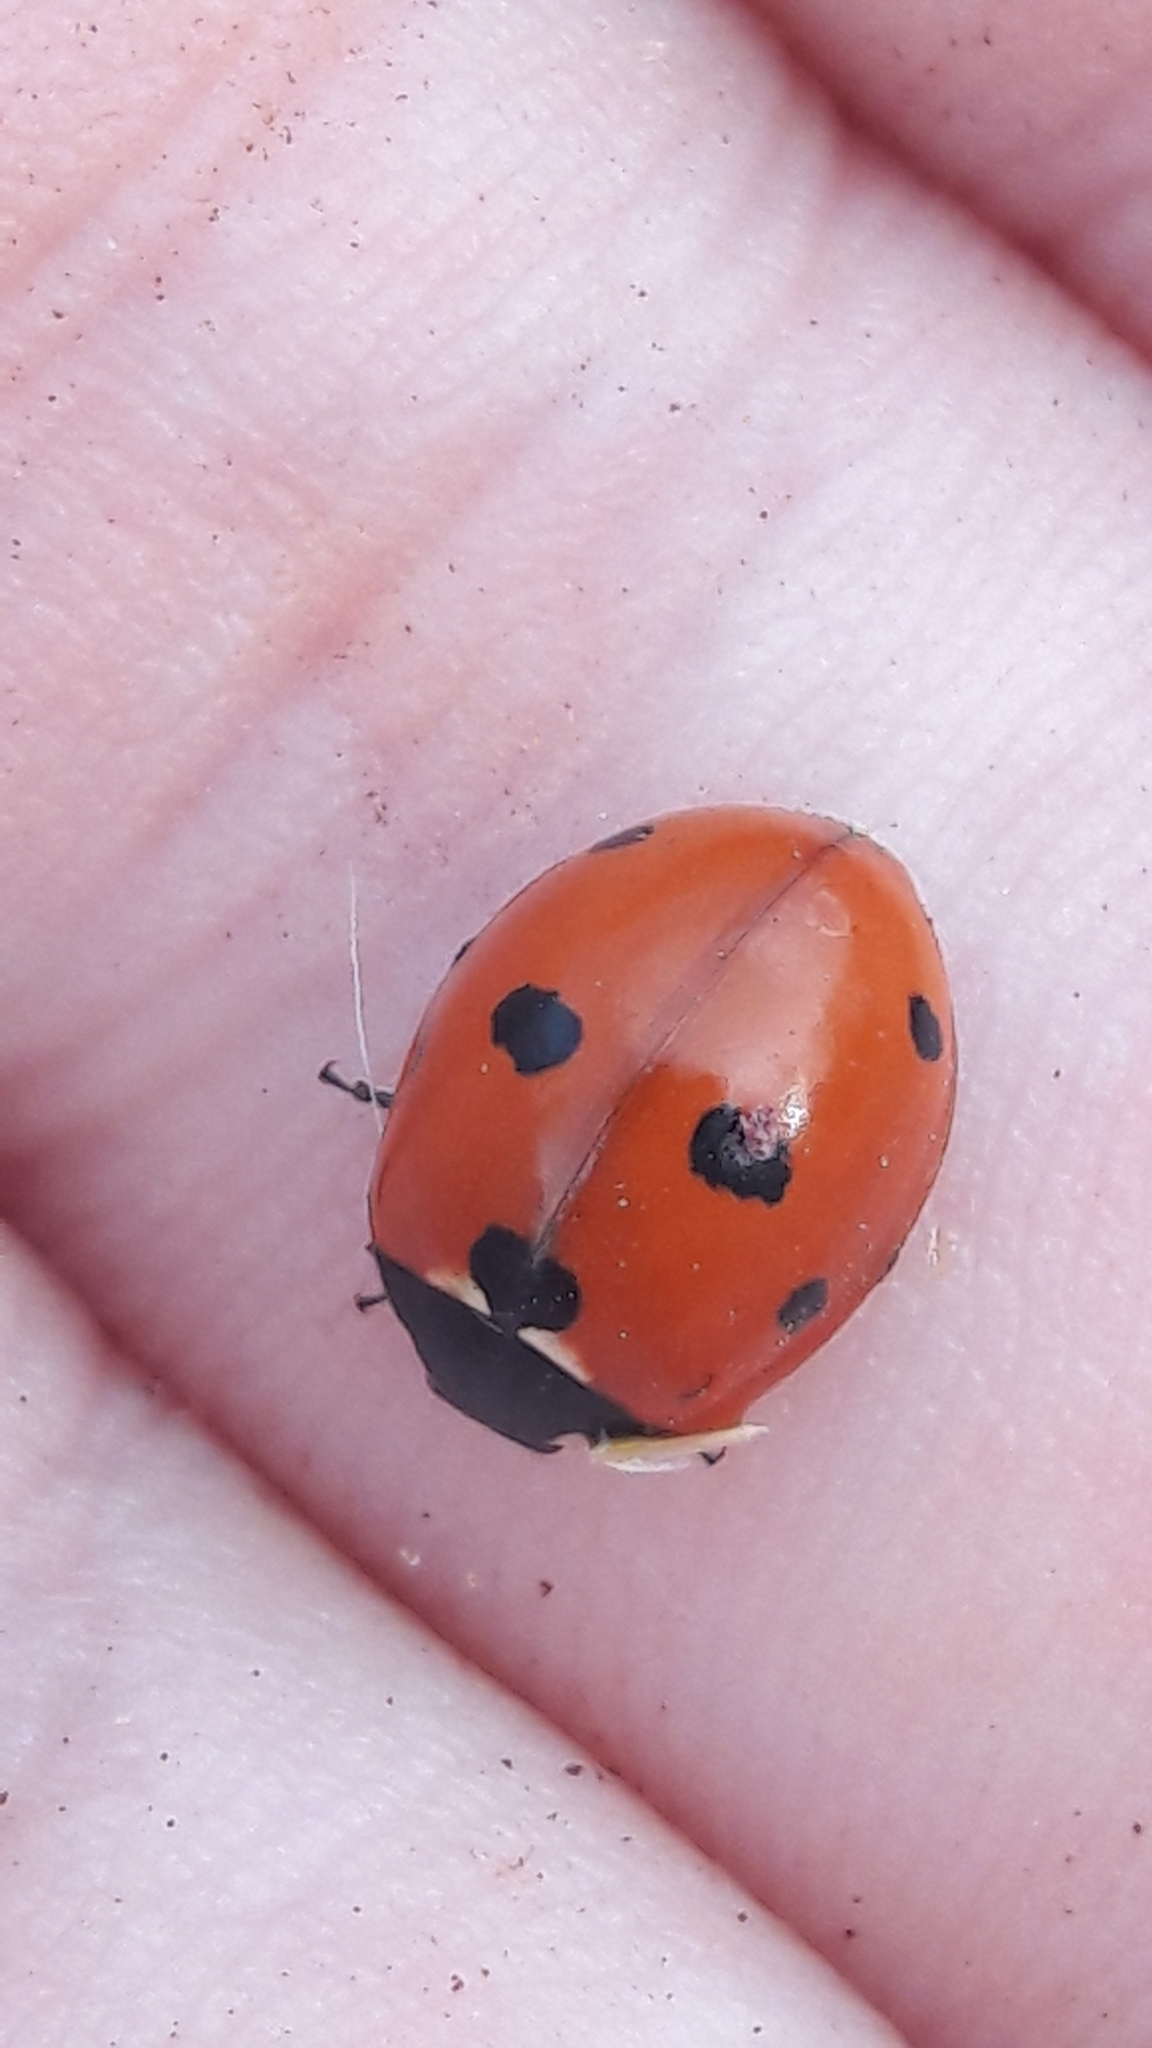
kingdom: Animalia
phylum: Arthropoda
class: Insecta
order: Coleoptera
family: Coccinellidae
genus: Coccinella
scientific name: Coccinella septempunctata
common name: Sevenspotted lady beetle
